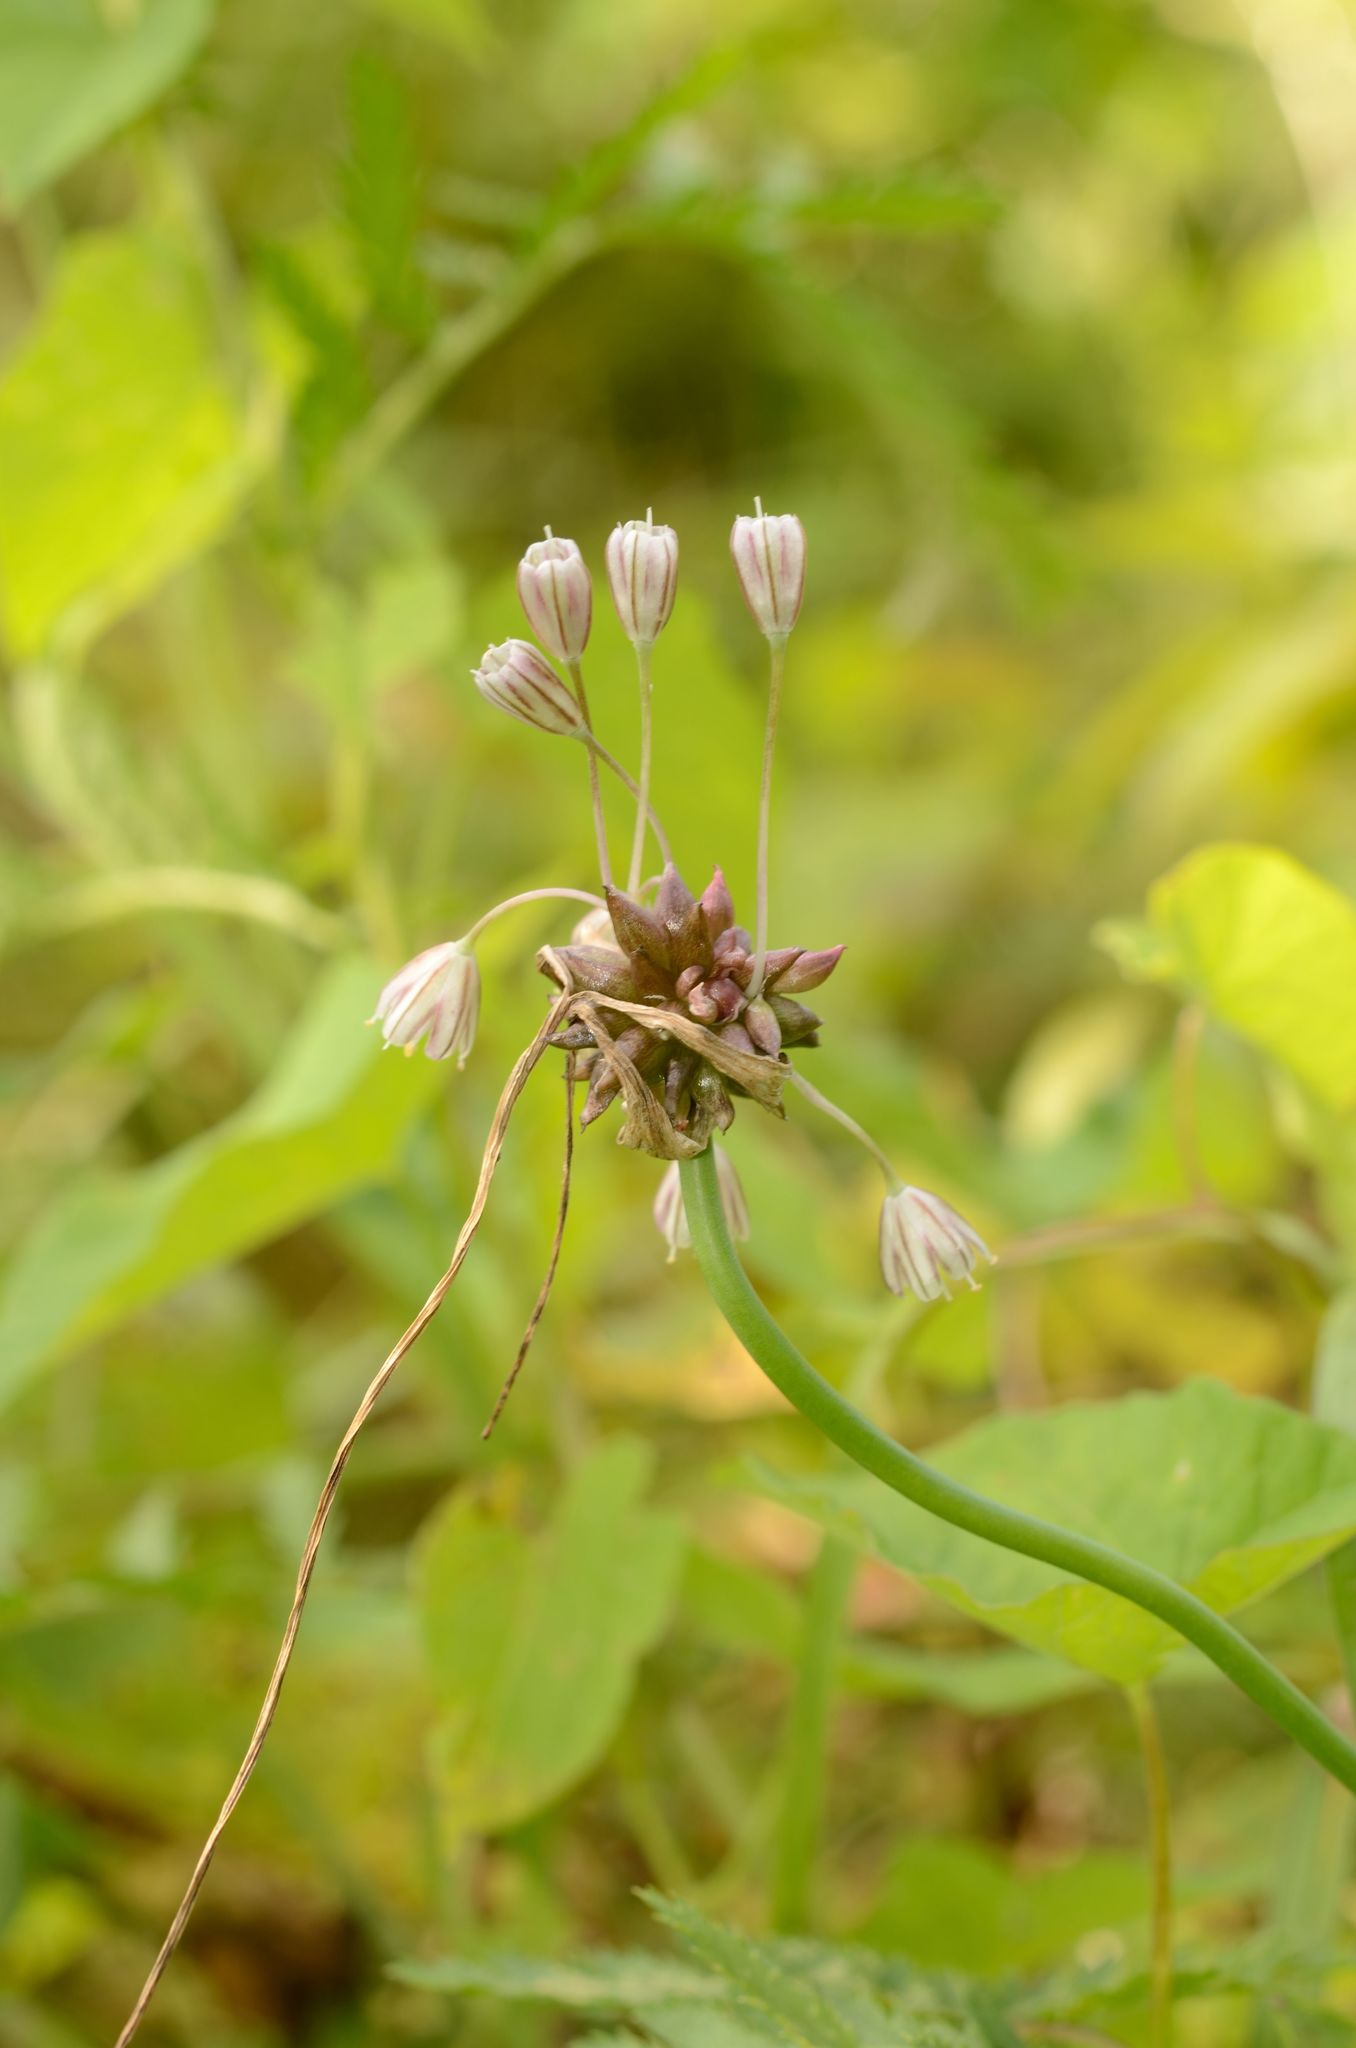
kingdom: Plantae
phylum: Tracheophyta
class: Liliopsida
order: Asparagales
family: Amaryllidaceae
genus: Allium
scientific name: Allium oleraceum
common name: Field garlic
